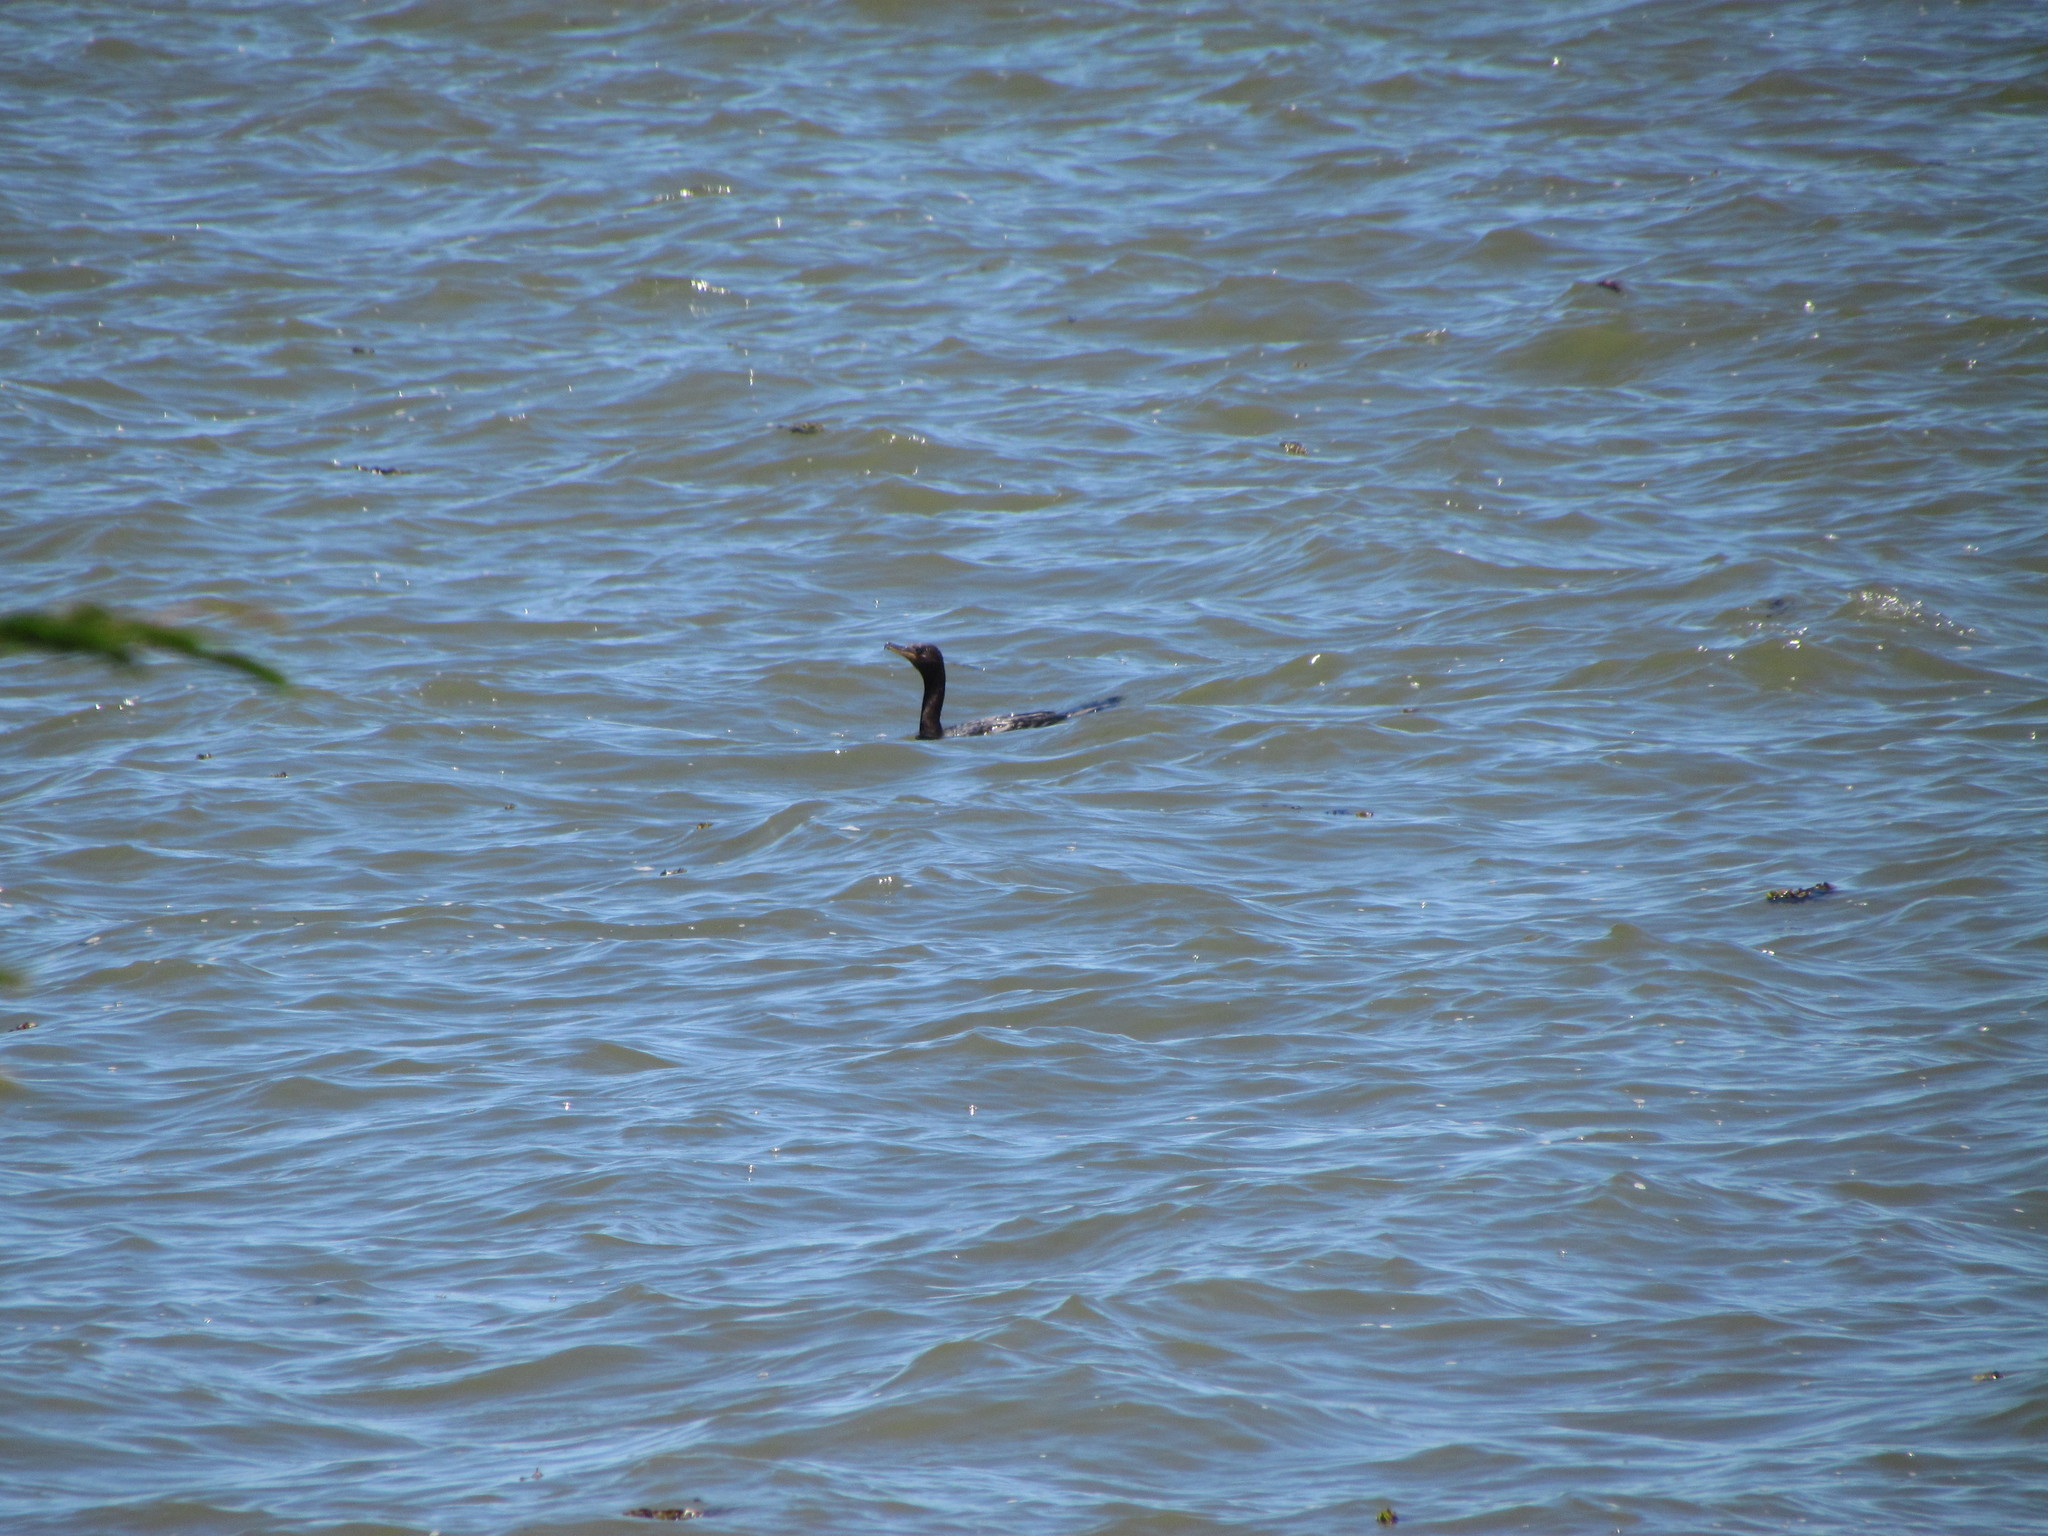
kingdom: Animalia
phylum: Chordata
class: Aves
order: Suliformes
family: Phalacrocoracidae
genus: Phalacrocorax
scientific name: Phalacrocorax brasilianus
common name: Neotropic cormorant
